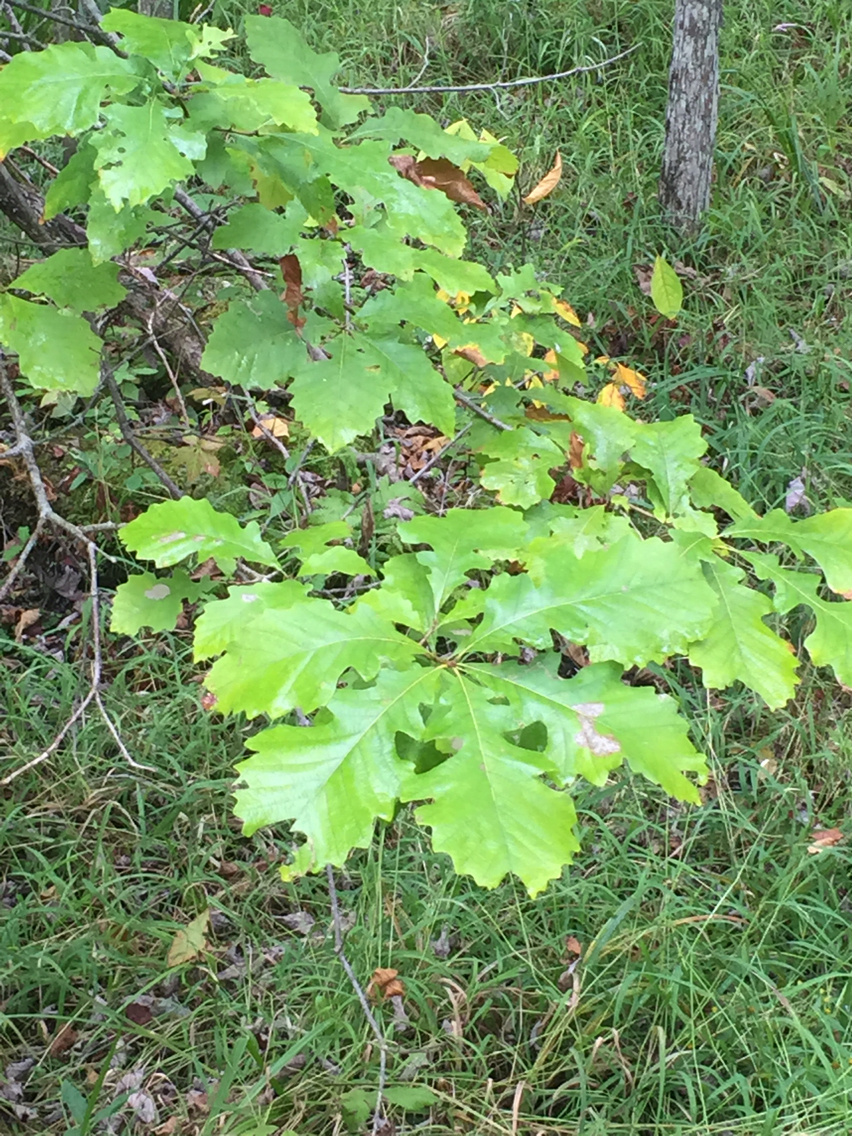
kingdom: Plantae
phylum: Tracheophyta
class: Magnoliopsida
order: Fagales
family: Fagaceae
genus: Quercus
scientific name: Quercus macrocarpa
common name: Bur oak
